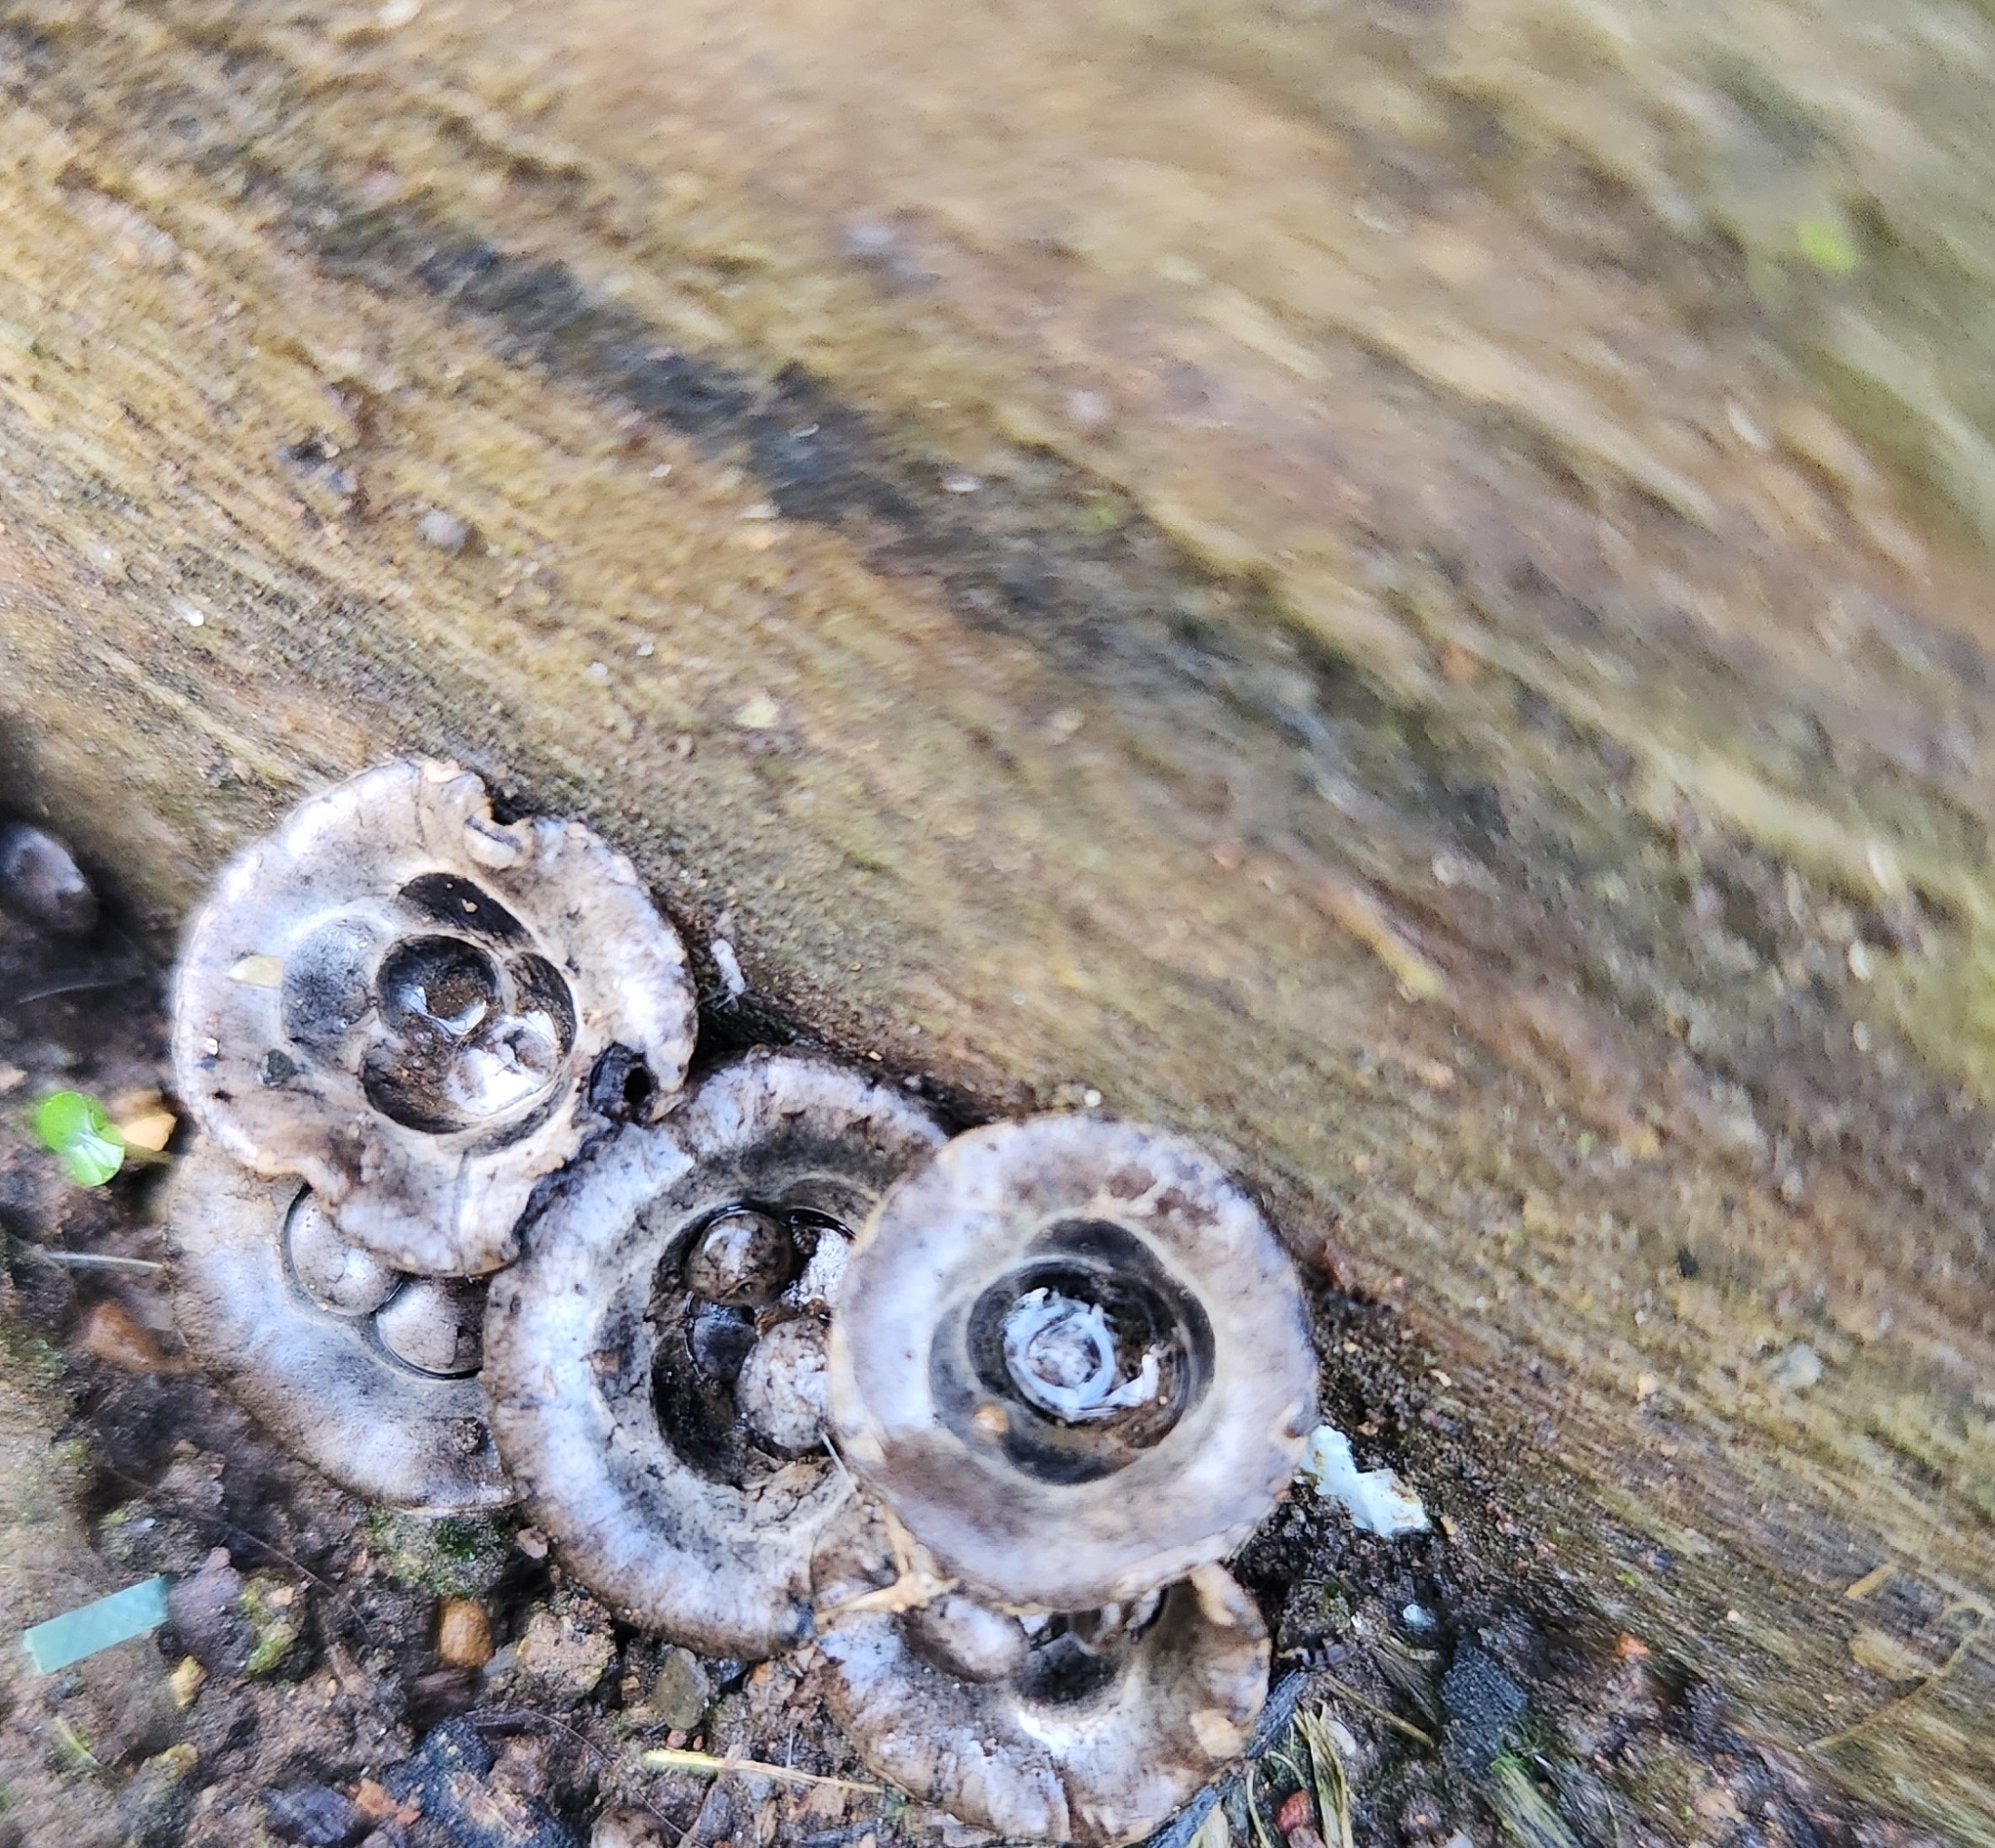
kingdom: Fungi
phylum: Basidiomycota
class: Agaricomycetes
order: Agaricales
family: Agaricaceae
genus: Cyathus
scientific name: Cyathus olla
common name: Field bird's nest
